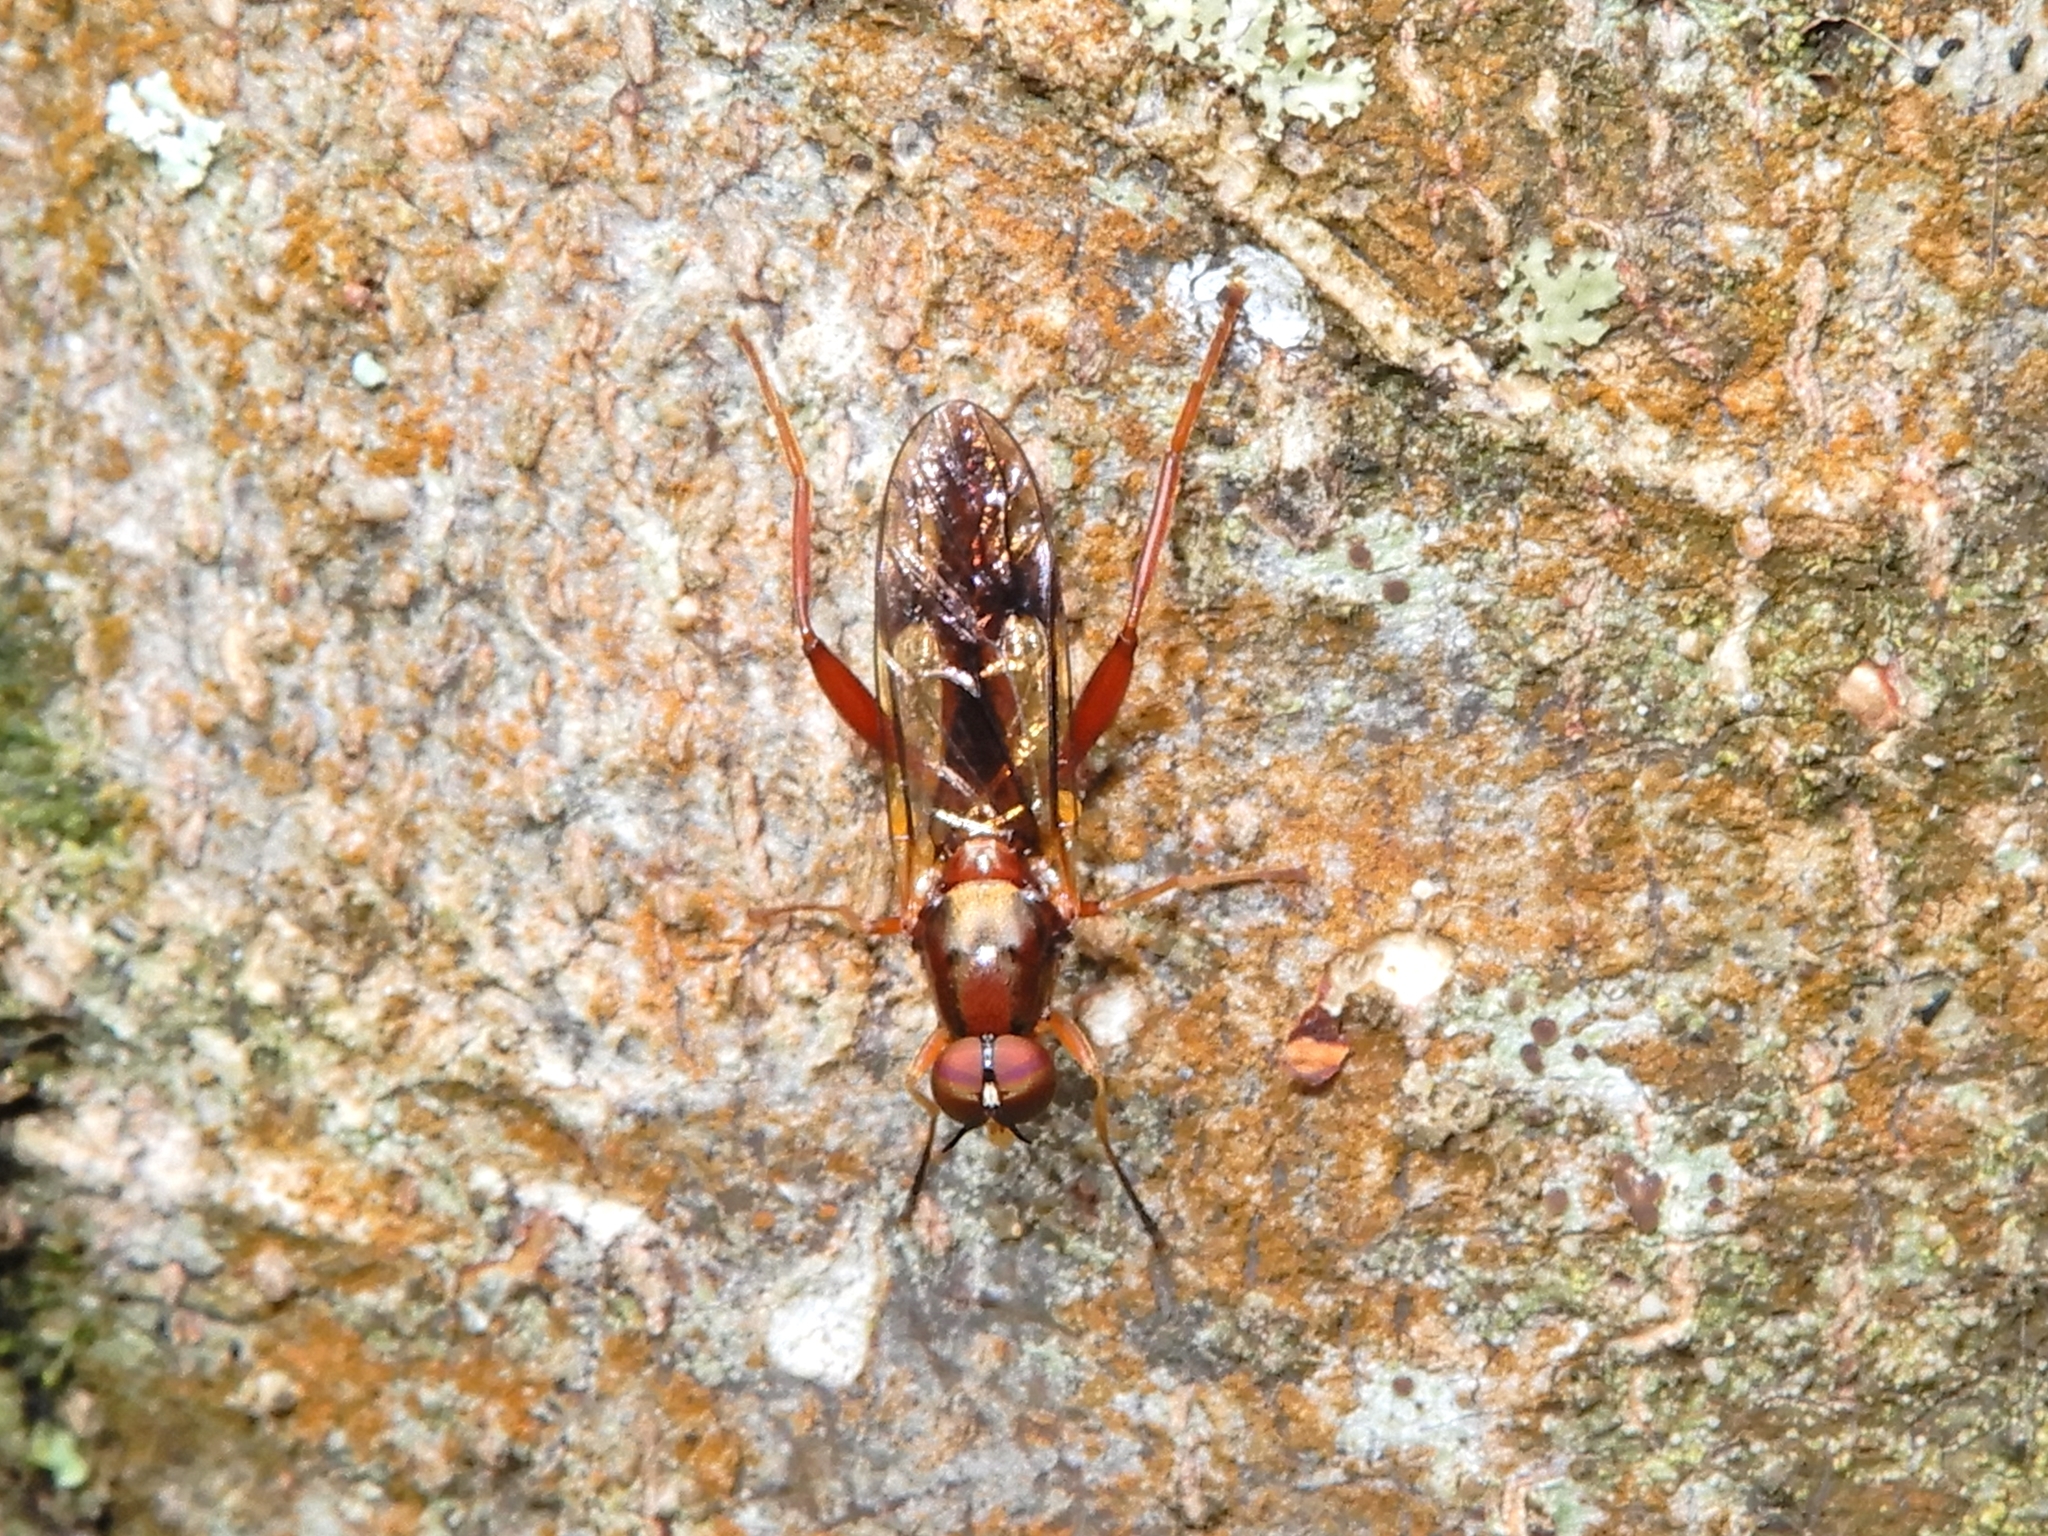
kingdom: Animalia
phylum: Arthropoda
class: Insecta
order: Diptera
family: Stratiomyidae
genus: Benhamyia
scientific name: Benhamyia straznitzkii
